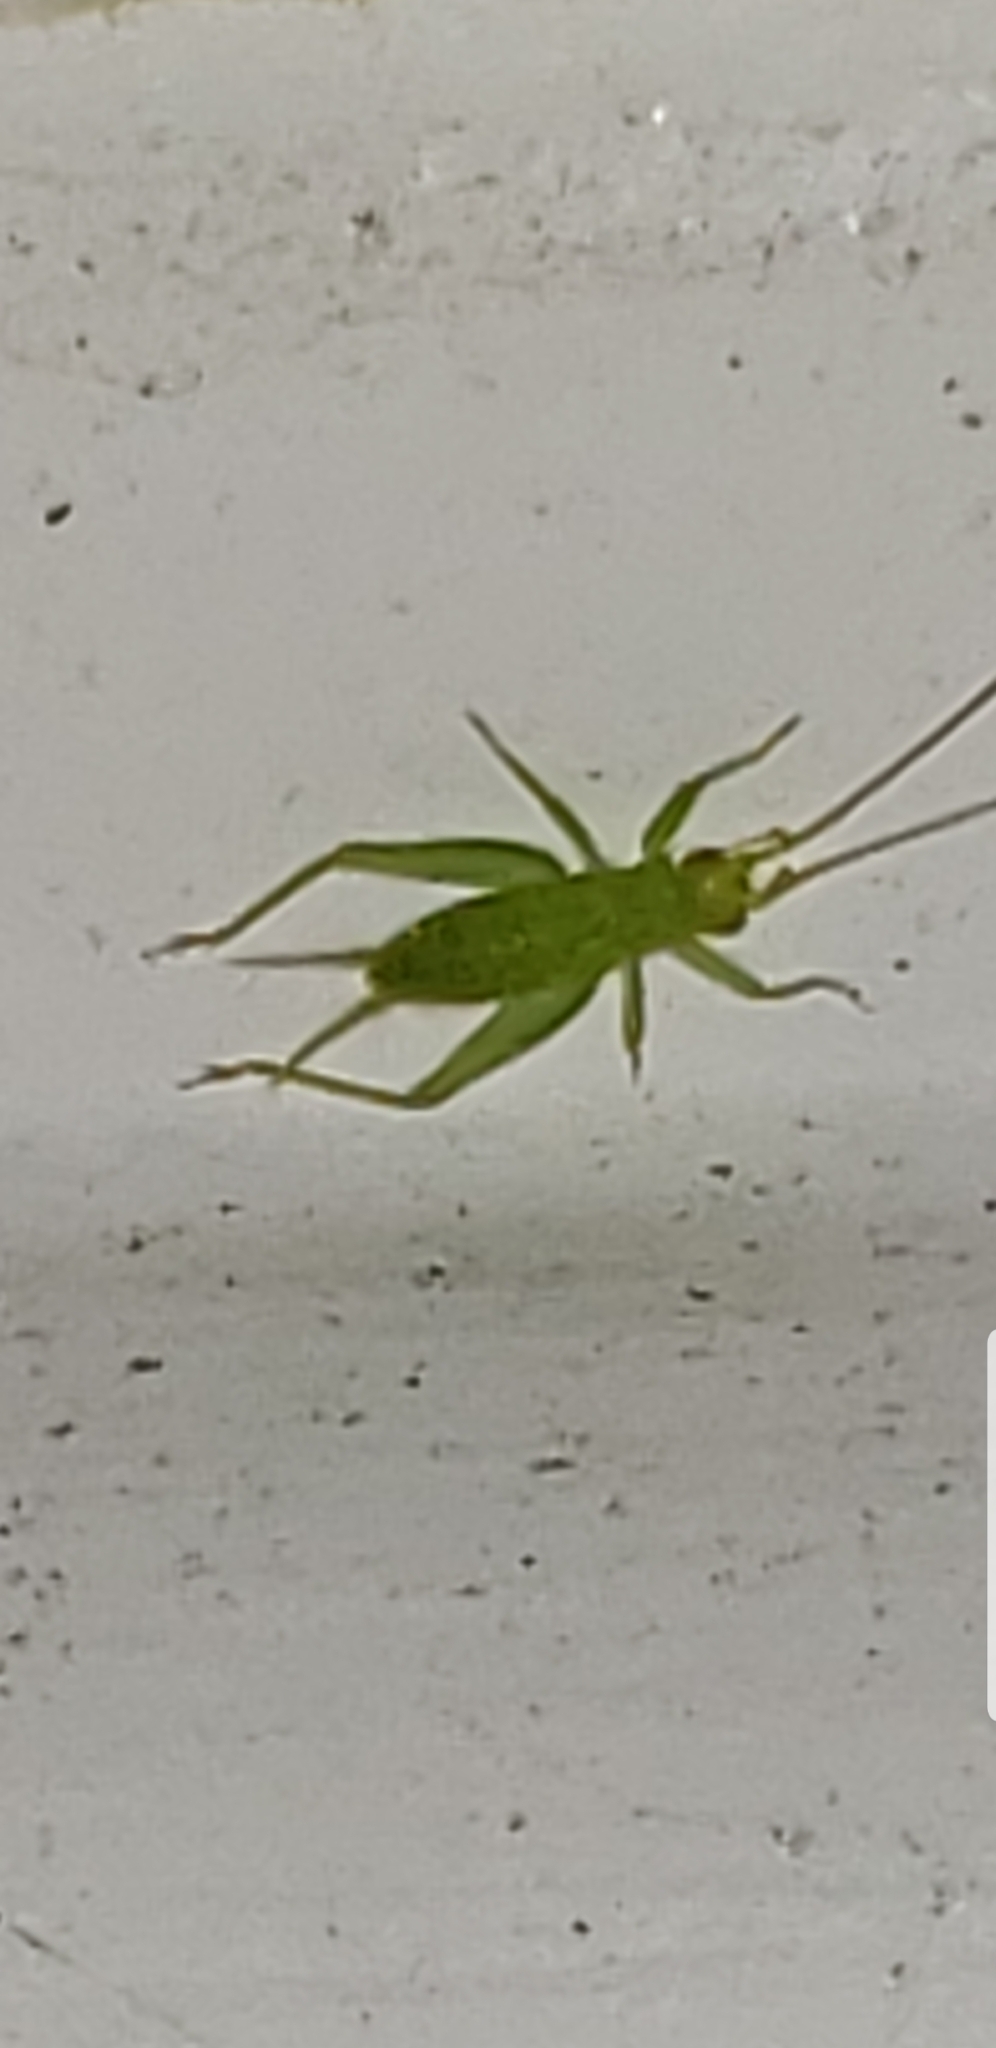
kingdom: Animalia
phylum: Arthropoda
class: Insecta
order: Orthoptera
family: Trigonidiidae
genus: Cyrtoxipha
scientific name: Cyrtoxipha columbiana
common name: Columbian trig
